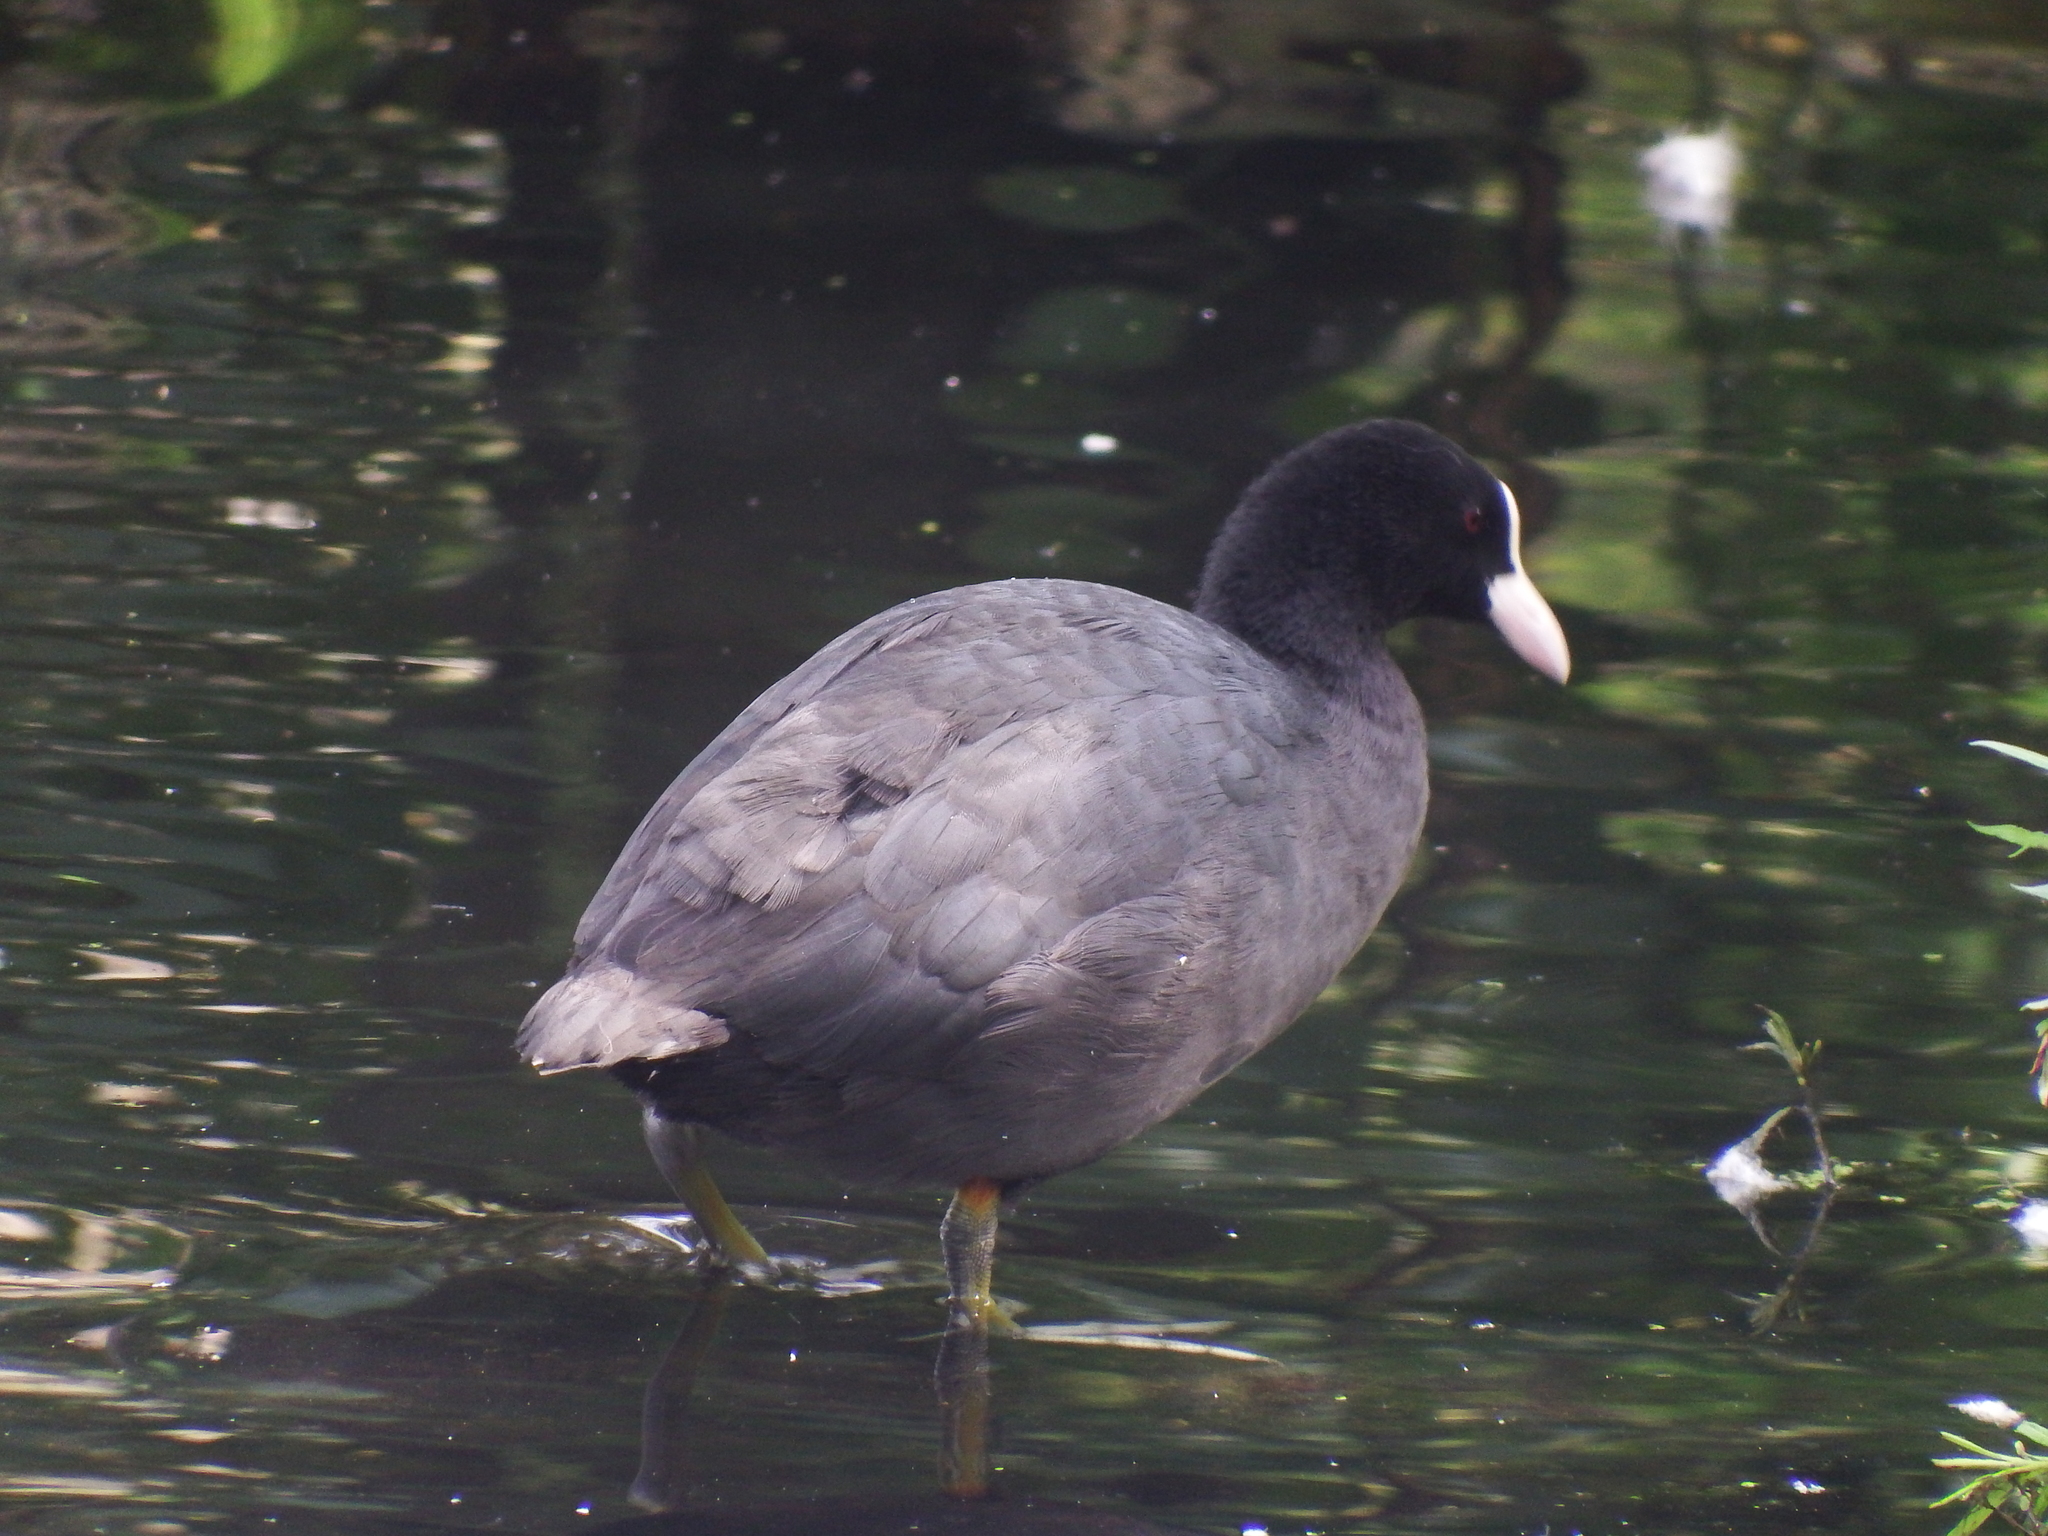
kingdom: Animalia
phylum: Chordata
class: Aves
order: Gruiformes
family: Rallidae
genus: Fulica
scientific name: Fulica atra
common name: Eurasian coot
